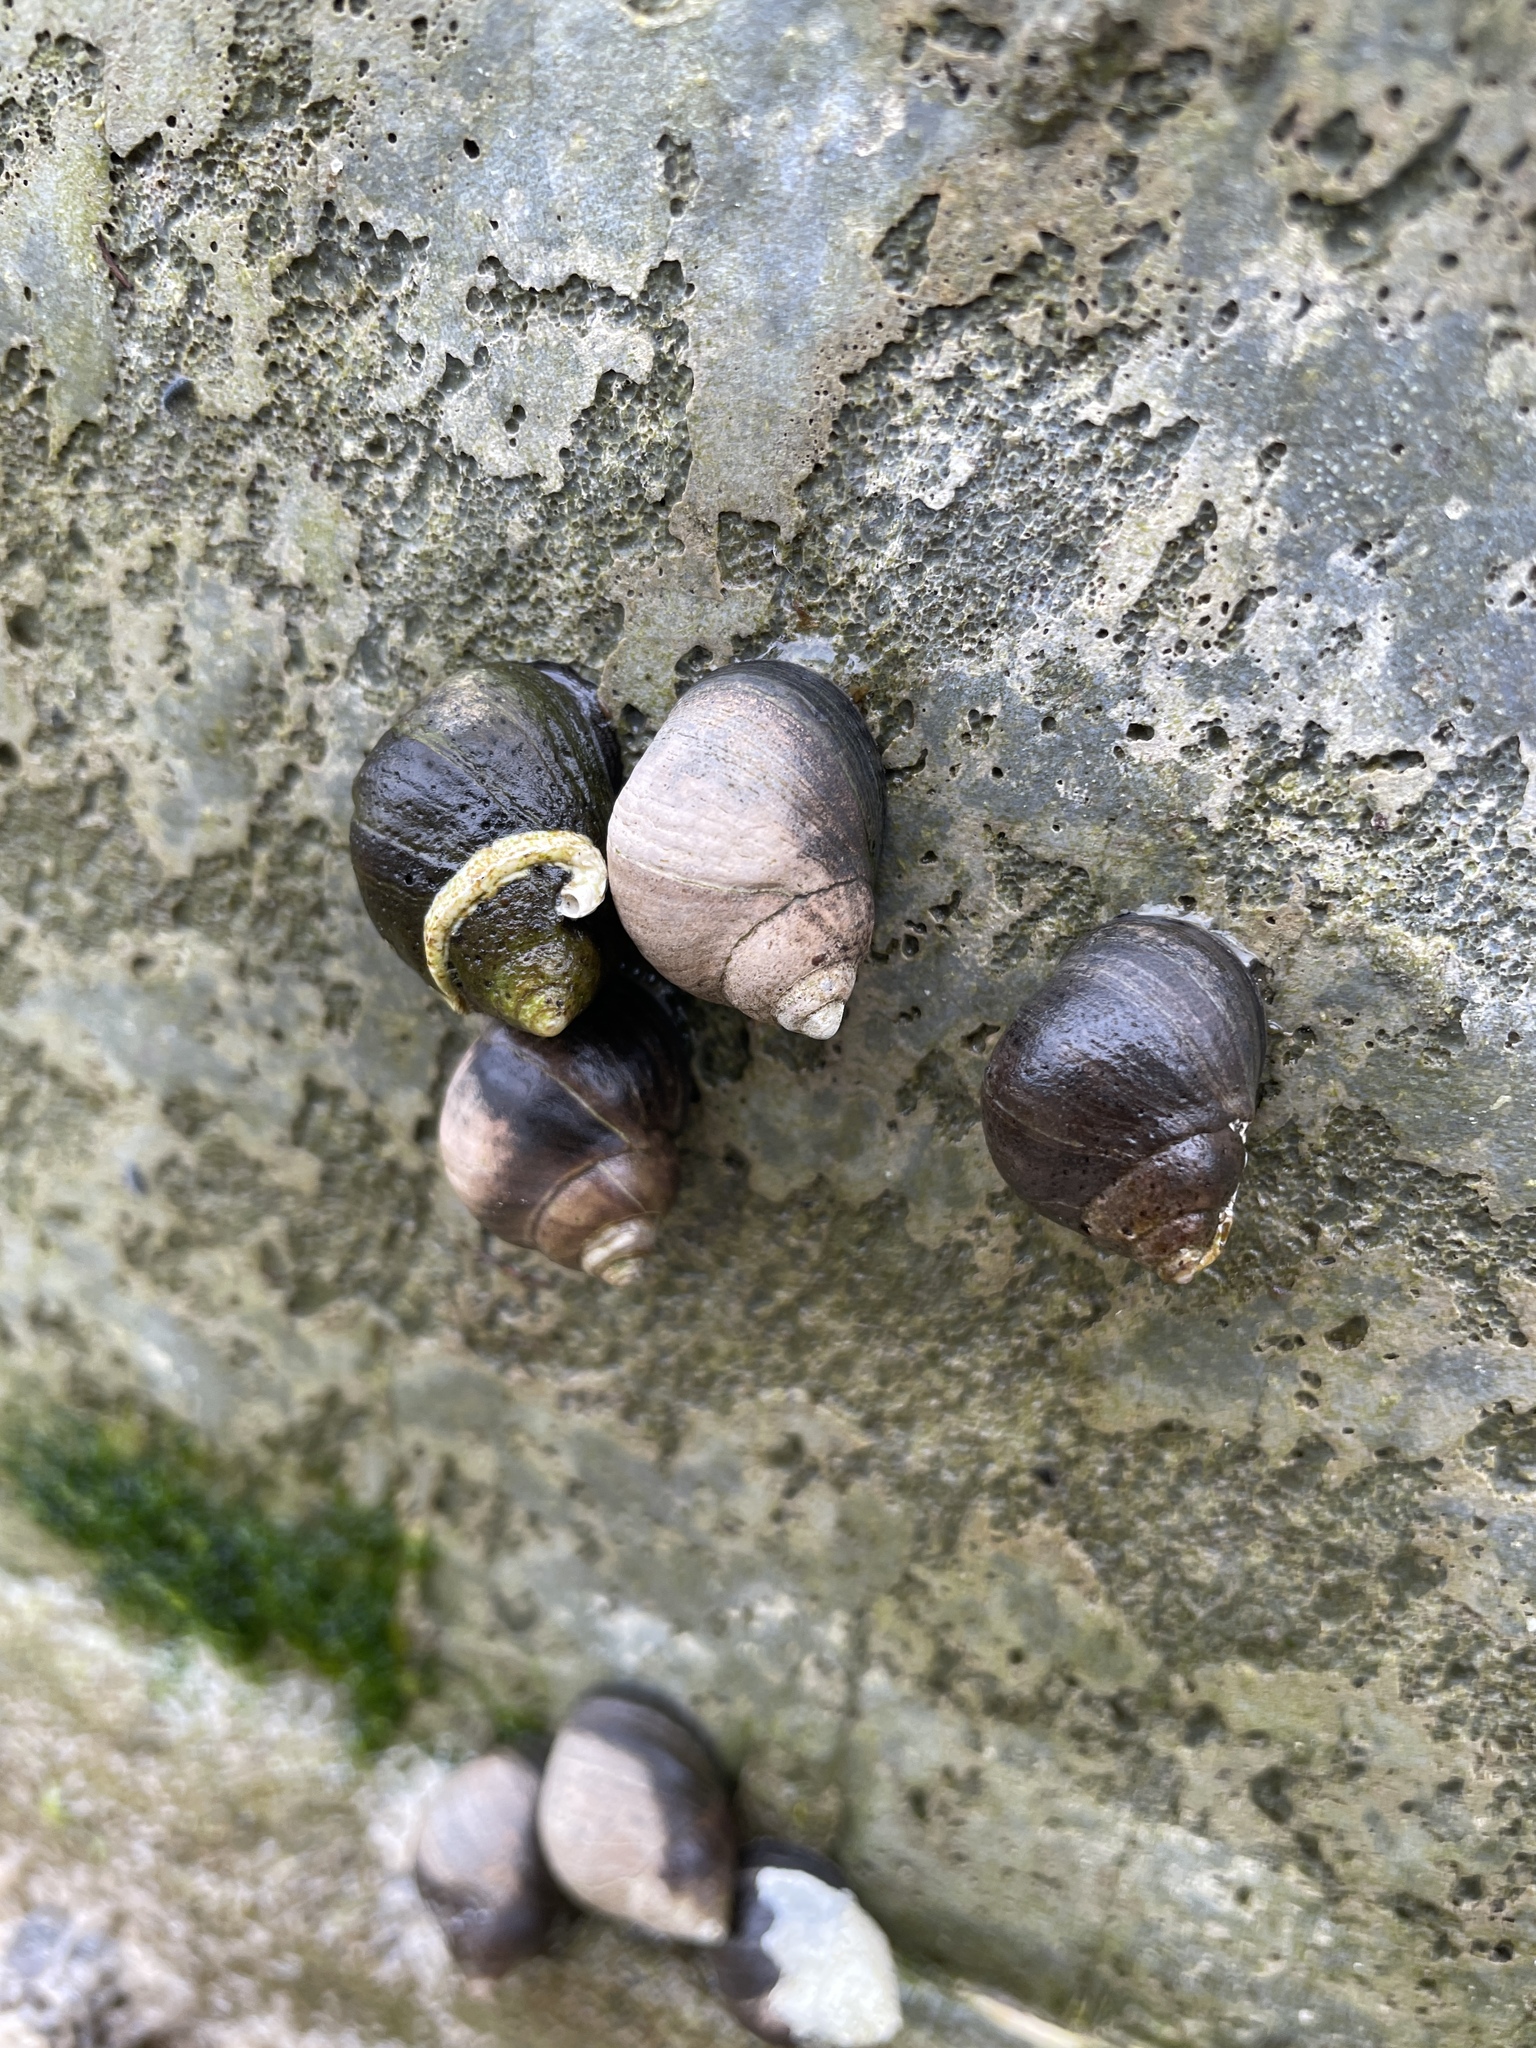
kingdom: Animalia
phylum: Mollusca
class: Gastropoda
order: Littorinimorpha
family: Littorinidae
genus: Littorina
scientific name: Littorina littorea
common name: Common periwinkle
